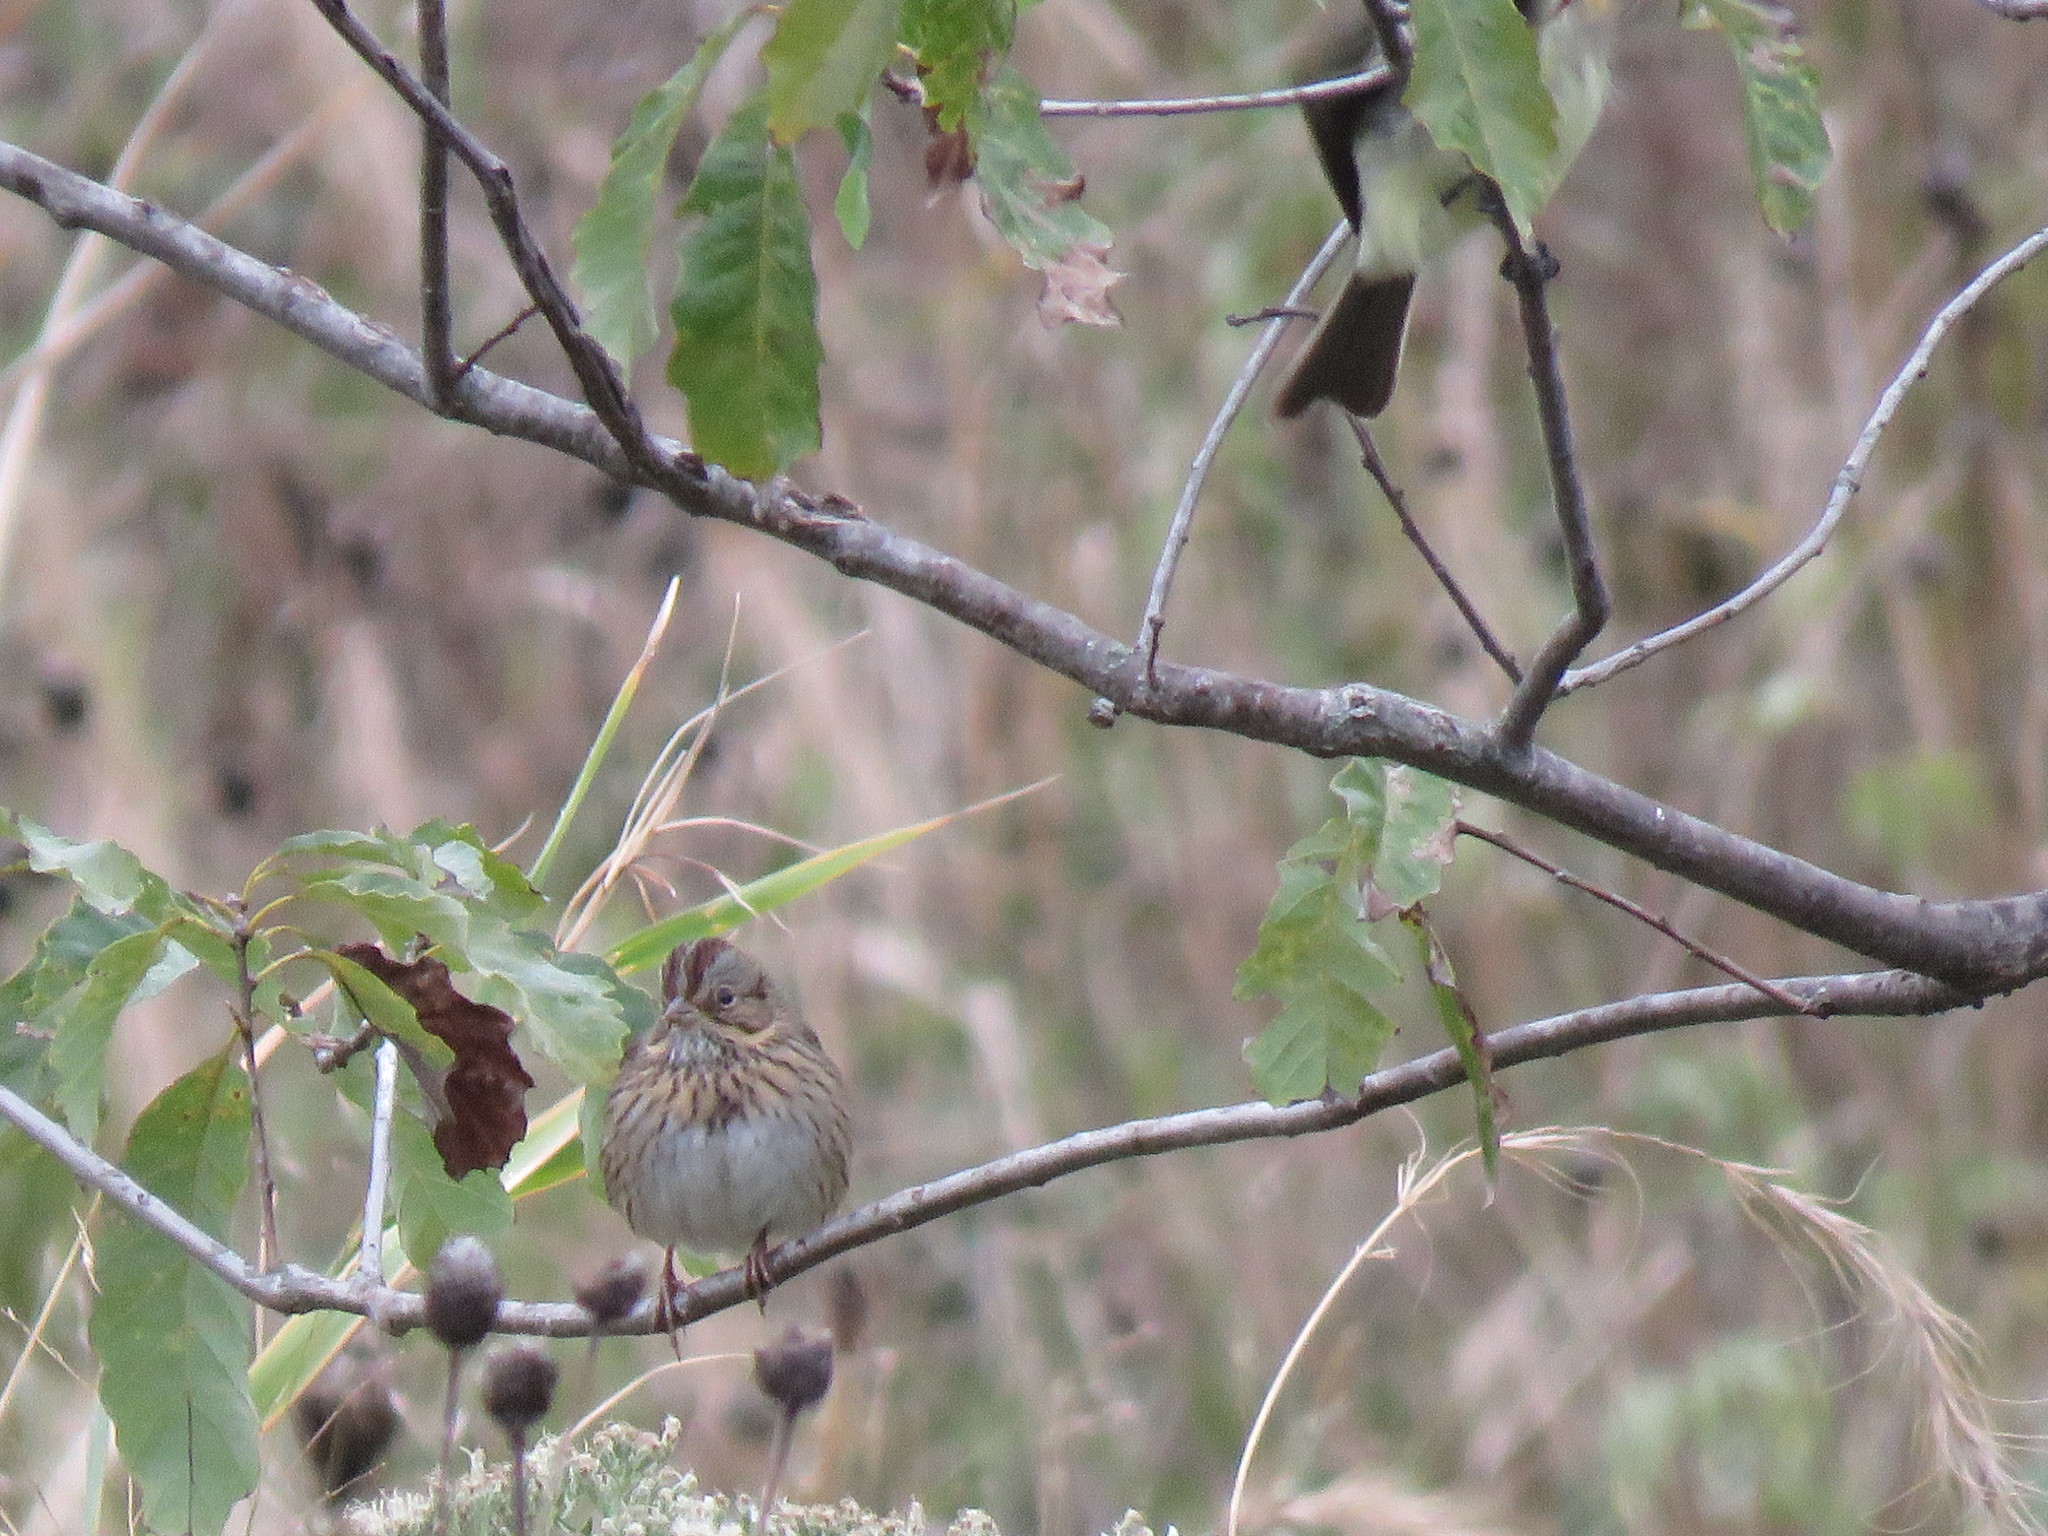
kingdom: Animalia
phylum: Chordata
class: Aves
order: Passeriformes
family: Passerellidae
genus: Melospiza
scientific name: Melospiza lincolnii
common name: Lincoln's sparrow
